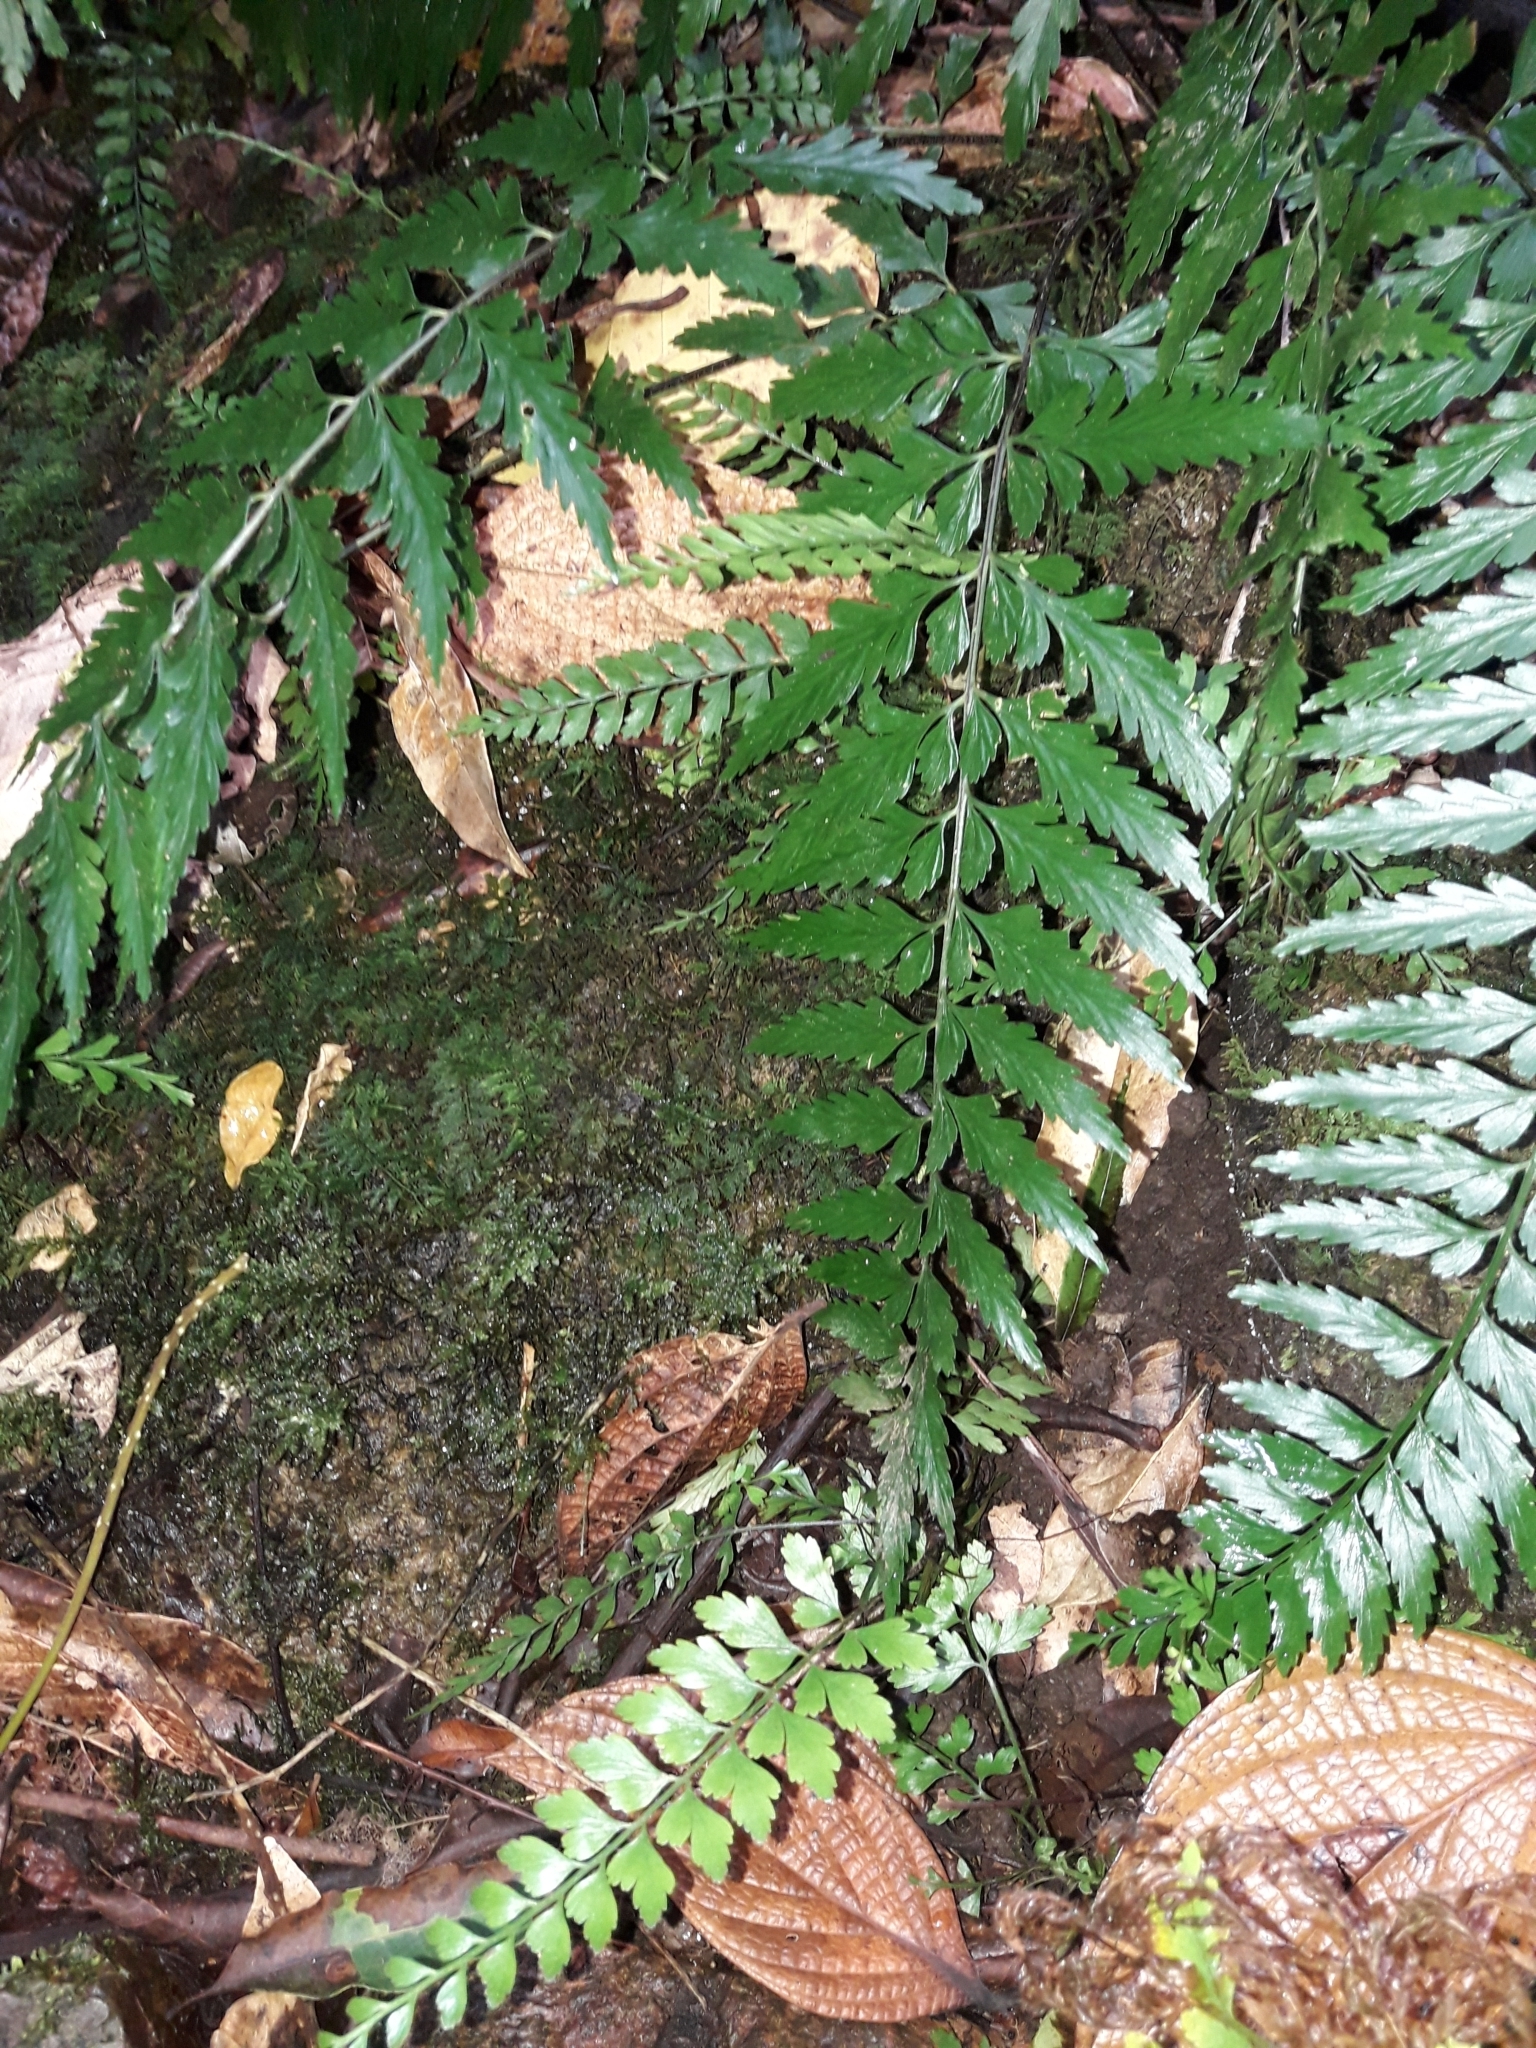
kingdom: Plantae
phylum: Tracheophyta
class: Polypodiopsida
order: Polypodiales
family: Aspleniaceae
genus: Asplenium
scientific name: Asplenium lobulatum
